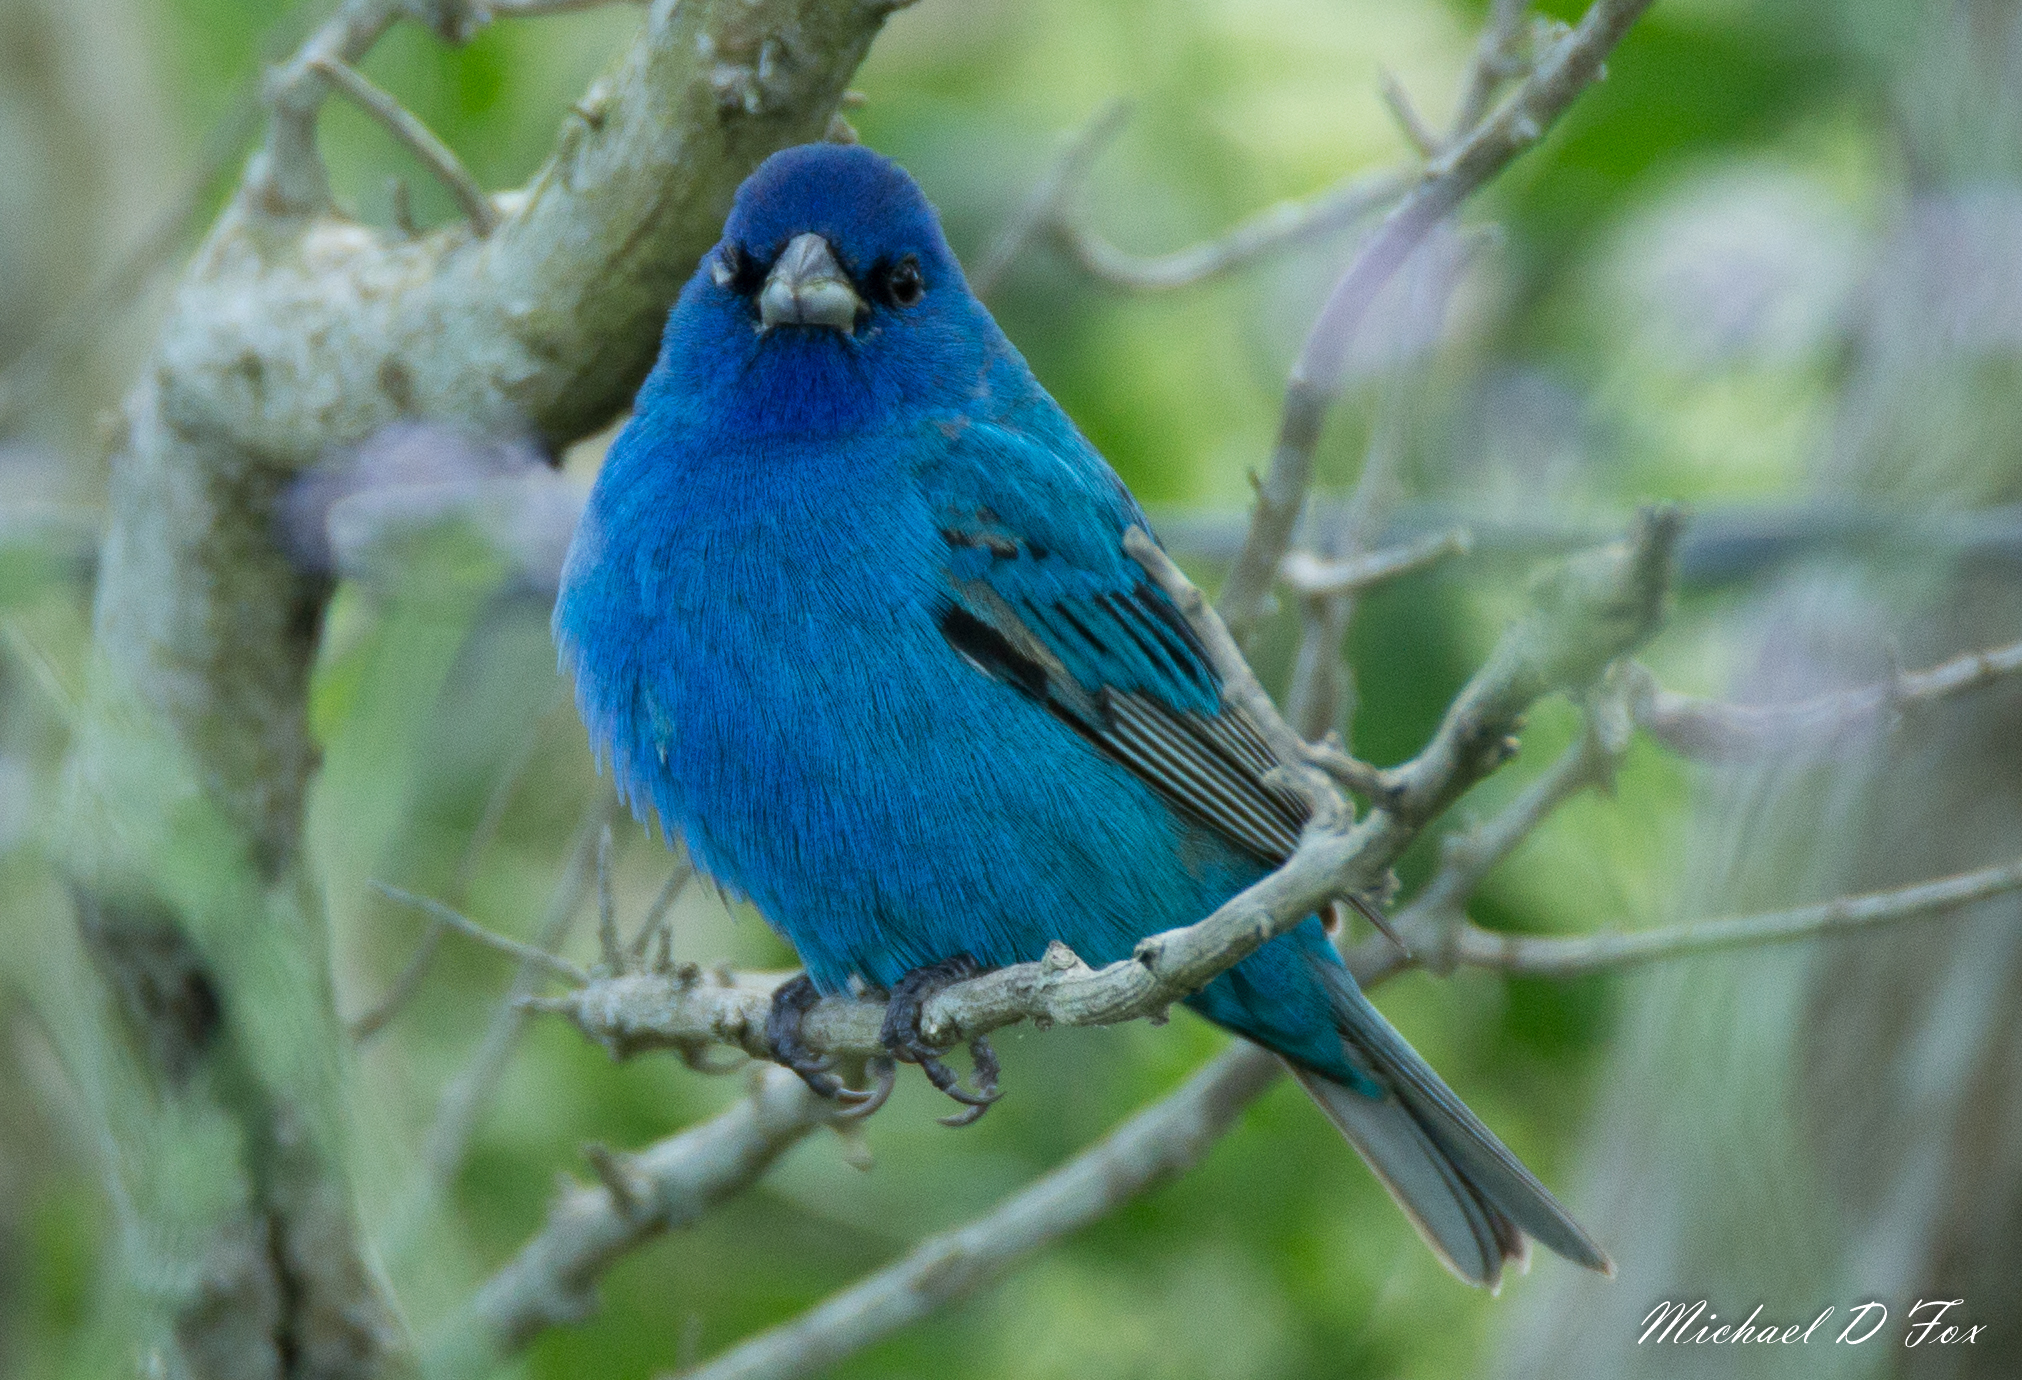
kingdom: Animalia
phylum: Chordata
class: Aves
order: Passeriformes
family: Cardinalidae
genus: Passerina
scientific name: Passerina cyanea
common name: Indigo bunting
